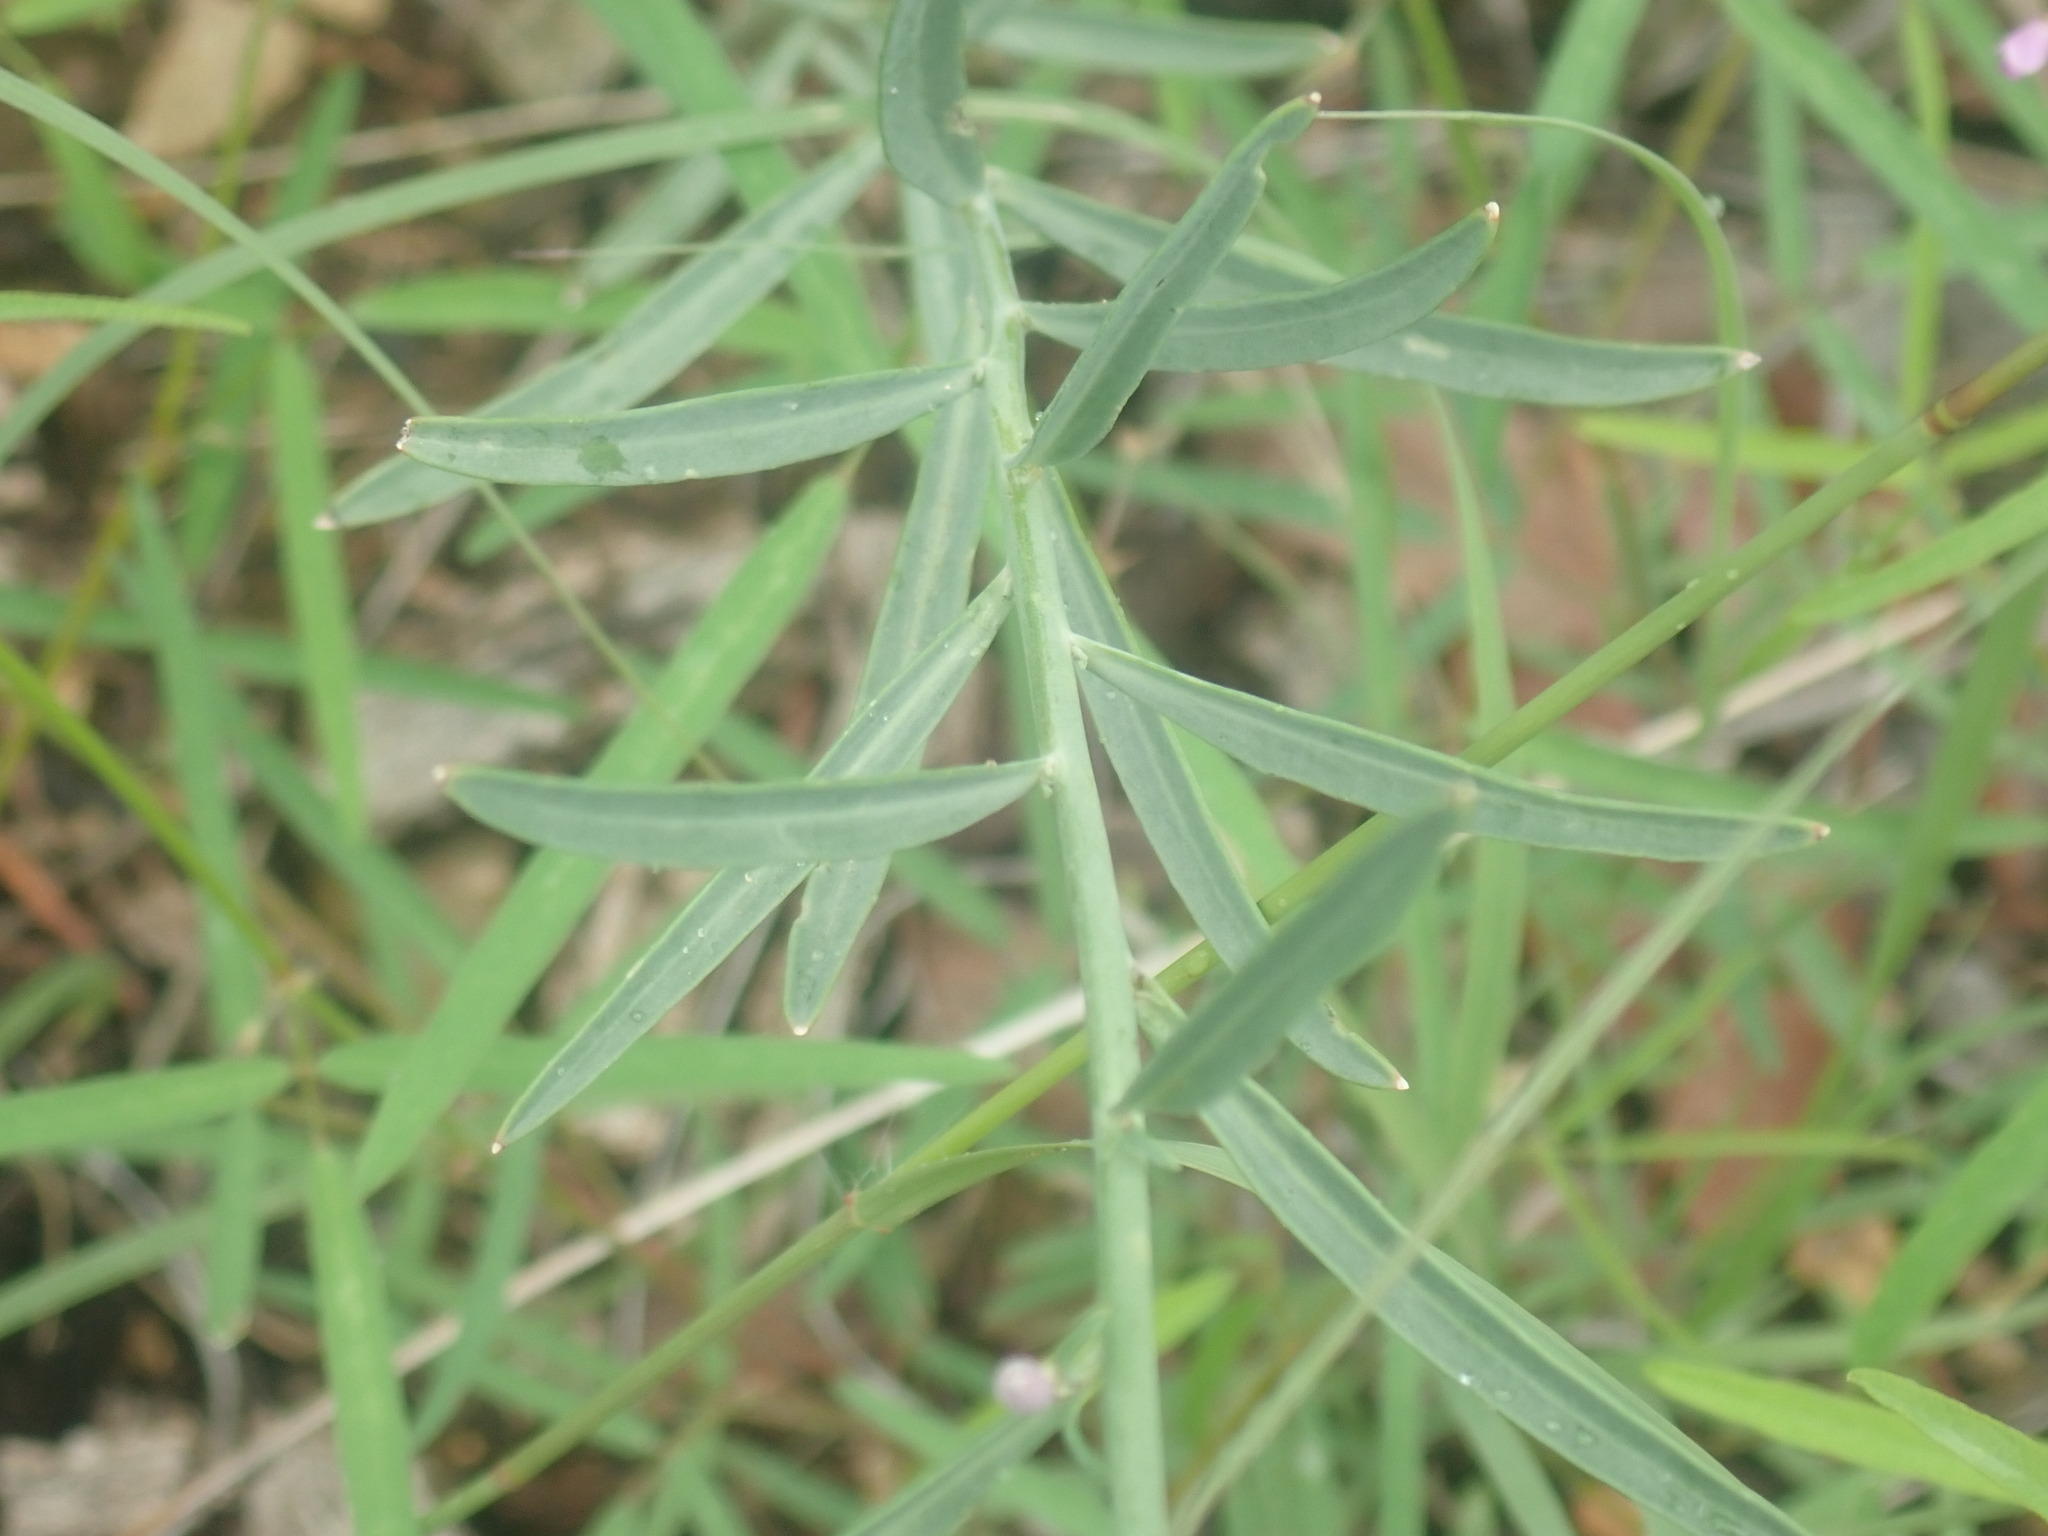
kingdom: Plantae
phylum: Tracheophyta
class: Magnoliopsida
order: Brassicales
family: Brassicaceae
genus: Hesperidanthus
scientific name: Hesperidanthus linearifolius
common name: Slim-leaf plains mustard
